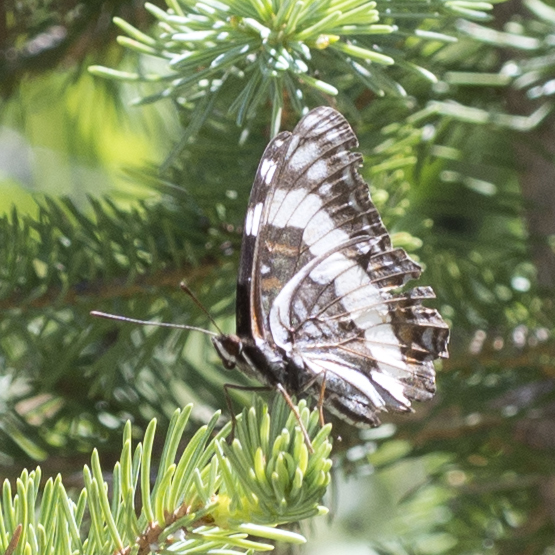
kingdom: Animalia
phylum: Arthropoda
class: Insecta
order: Lepidoptera
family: Nymphalidae
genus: Limenitis
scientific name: Limenitis weidemeyerii
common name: Weidemeyer's admiral
